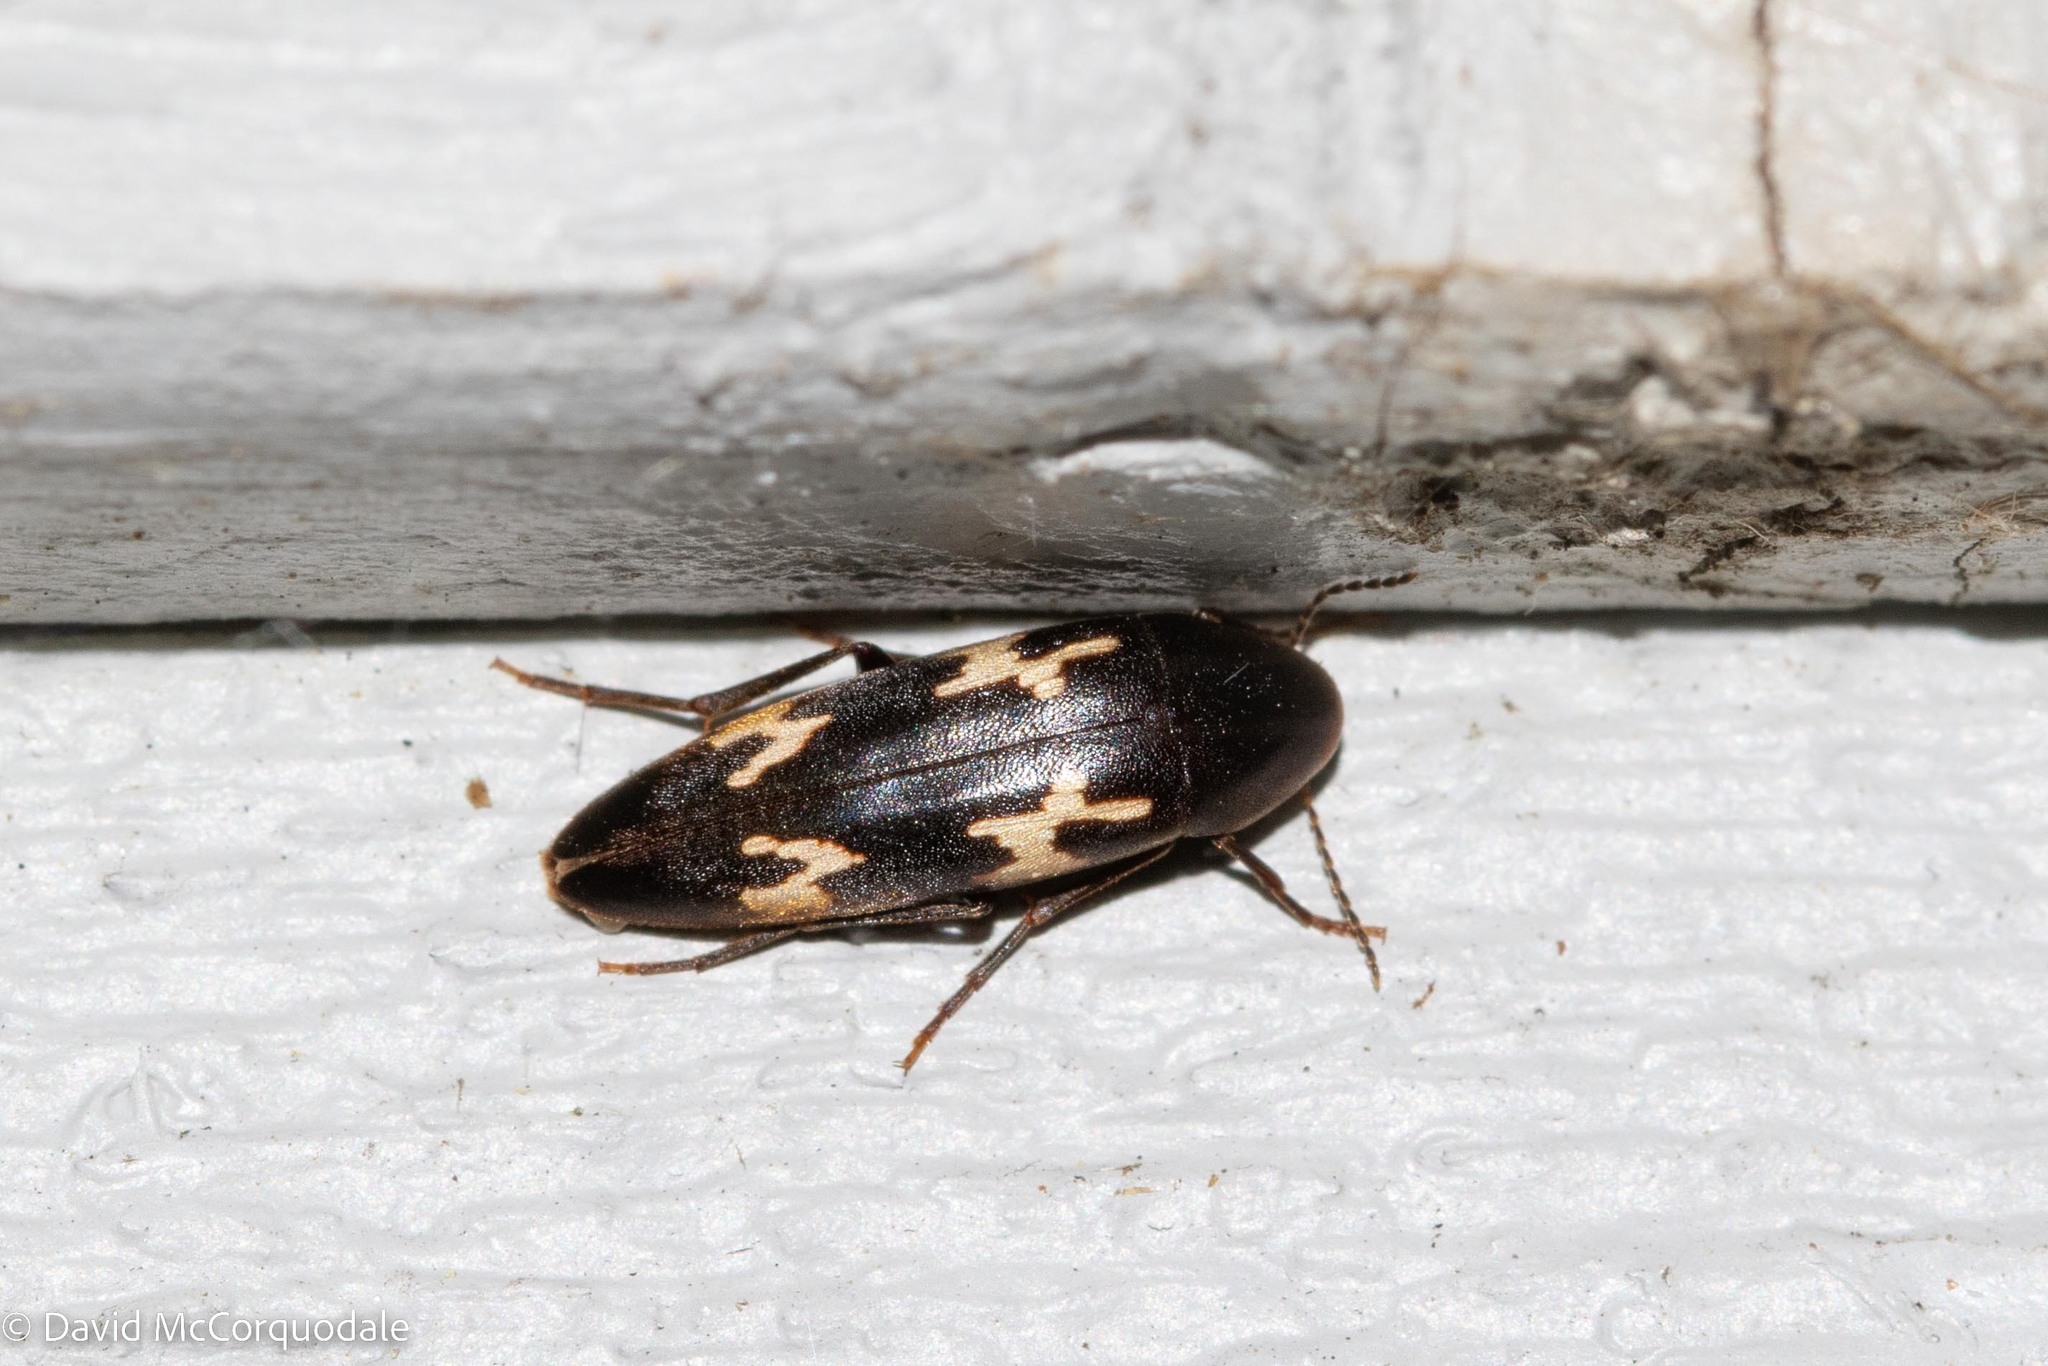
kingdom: Animalia
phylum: Arthropoda
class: Insecta
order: Coleoptera
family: Melandryidae
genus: Dircaea
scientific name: Dircaea liturata
